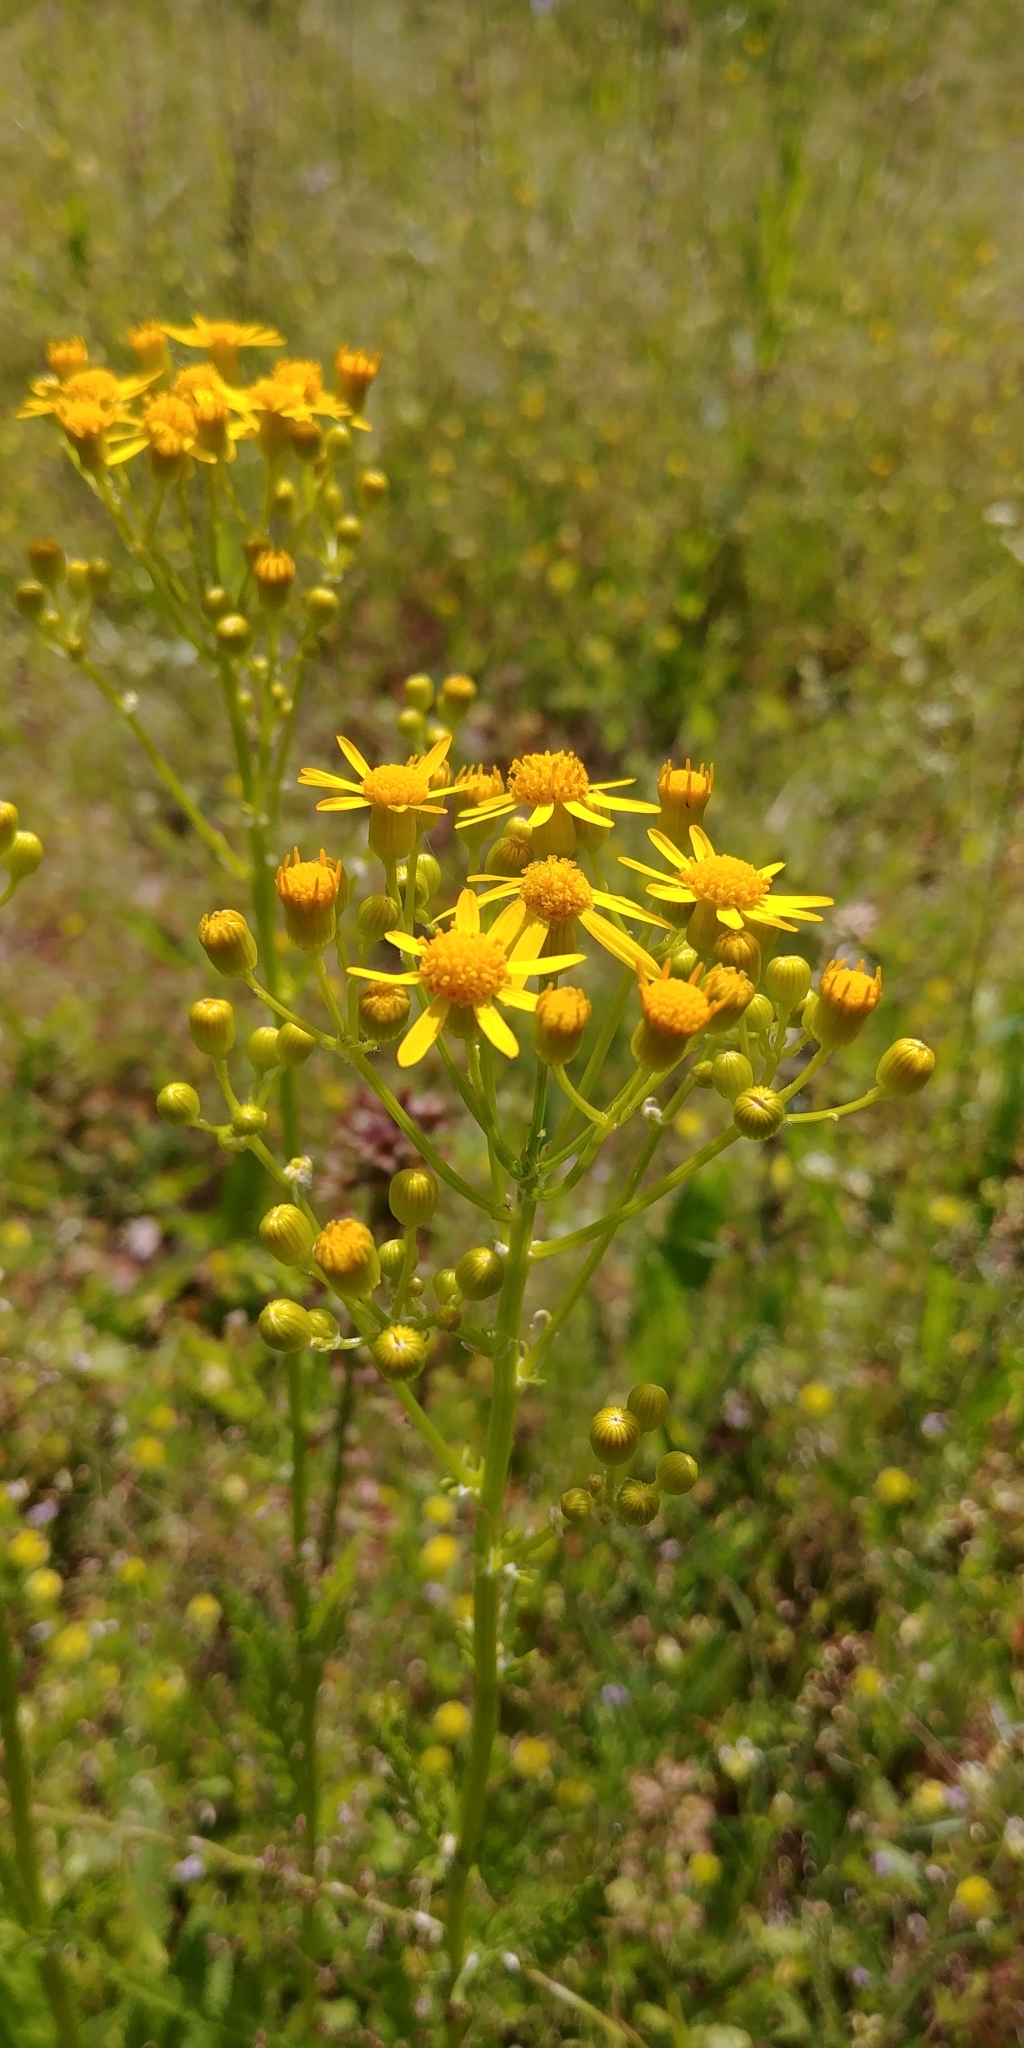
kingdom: Plantae
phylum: Tracheophyta
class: Magnoliopsida
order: Asterales
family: Asteraceae
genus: Packera
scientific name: Packera anonyma
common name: Small ragwort
